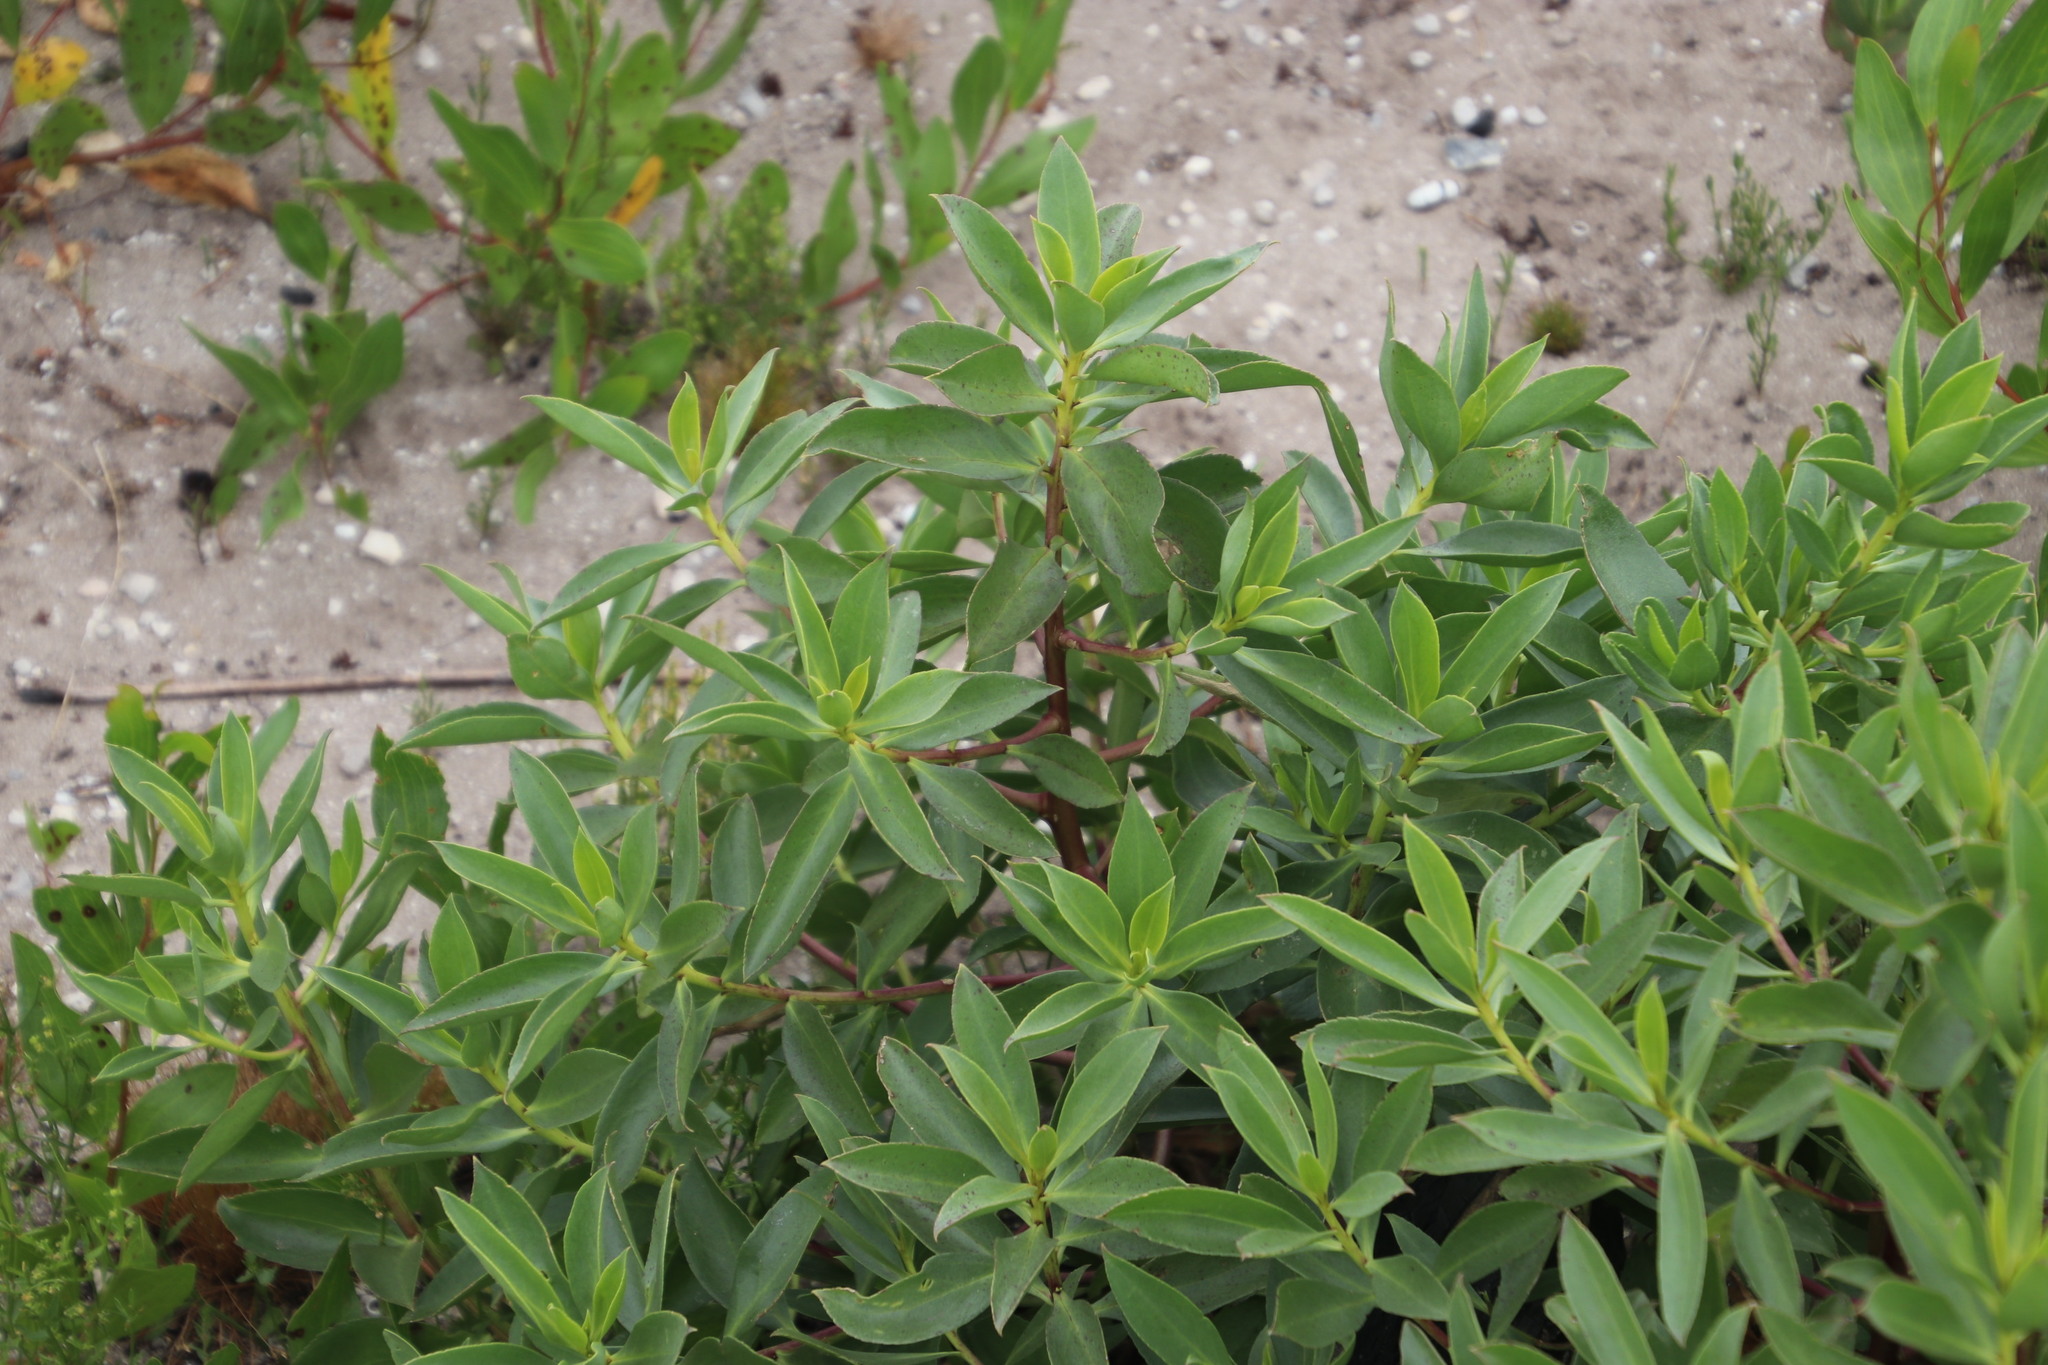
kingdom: Plantae
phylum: Tracheophyta
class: Magnoliopsida
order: Lamiales
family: Scrophulariaceae
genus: Myoporum
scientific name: Myoporum insulare
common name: Common boobialla
